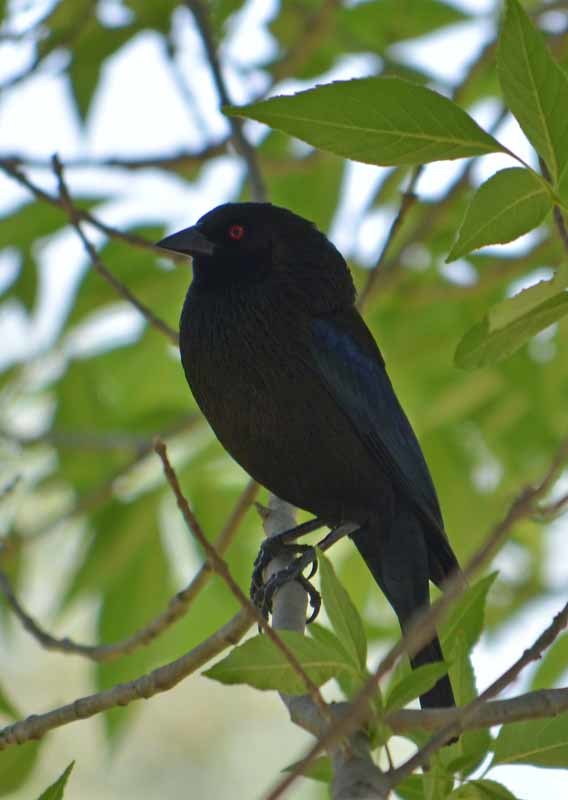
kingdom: Animalia
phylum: Chordata
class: Aves
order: Passeriformes
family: Icteridae
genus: Molothrus
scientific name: Molothrus aeneus
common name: Bronzed cowbird
